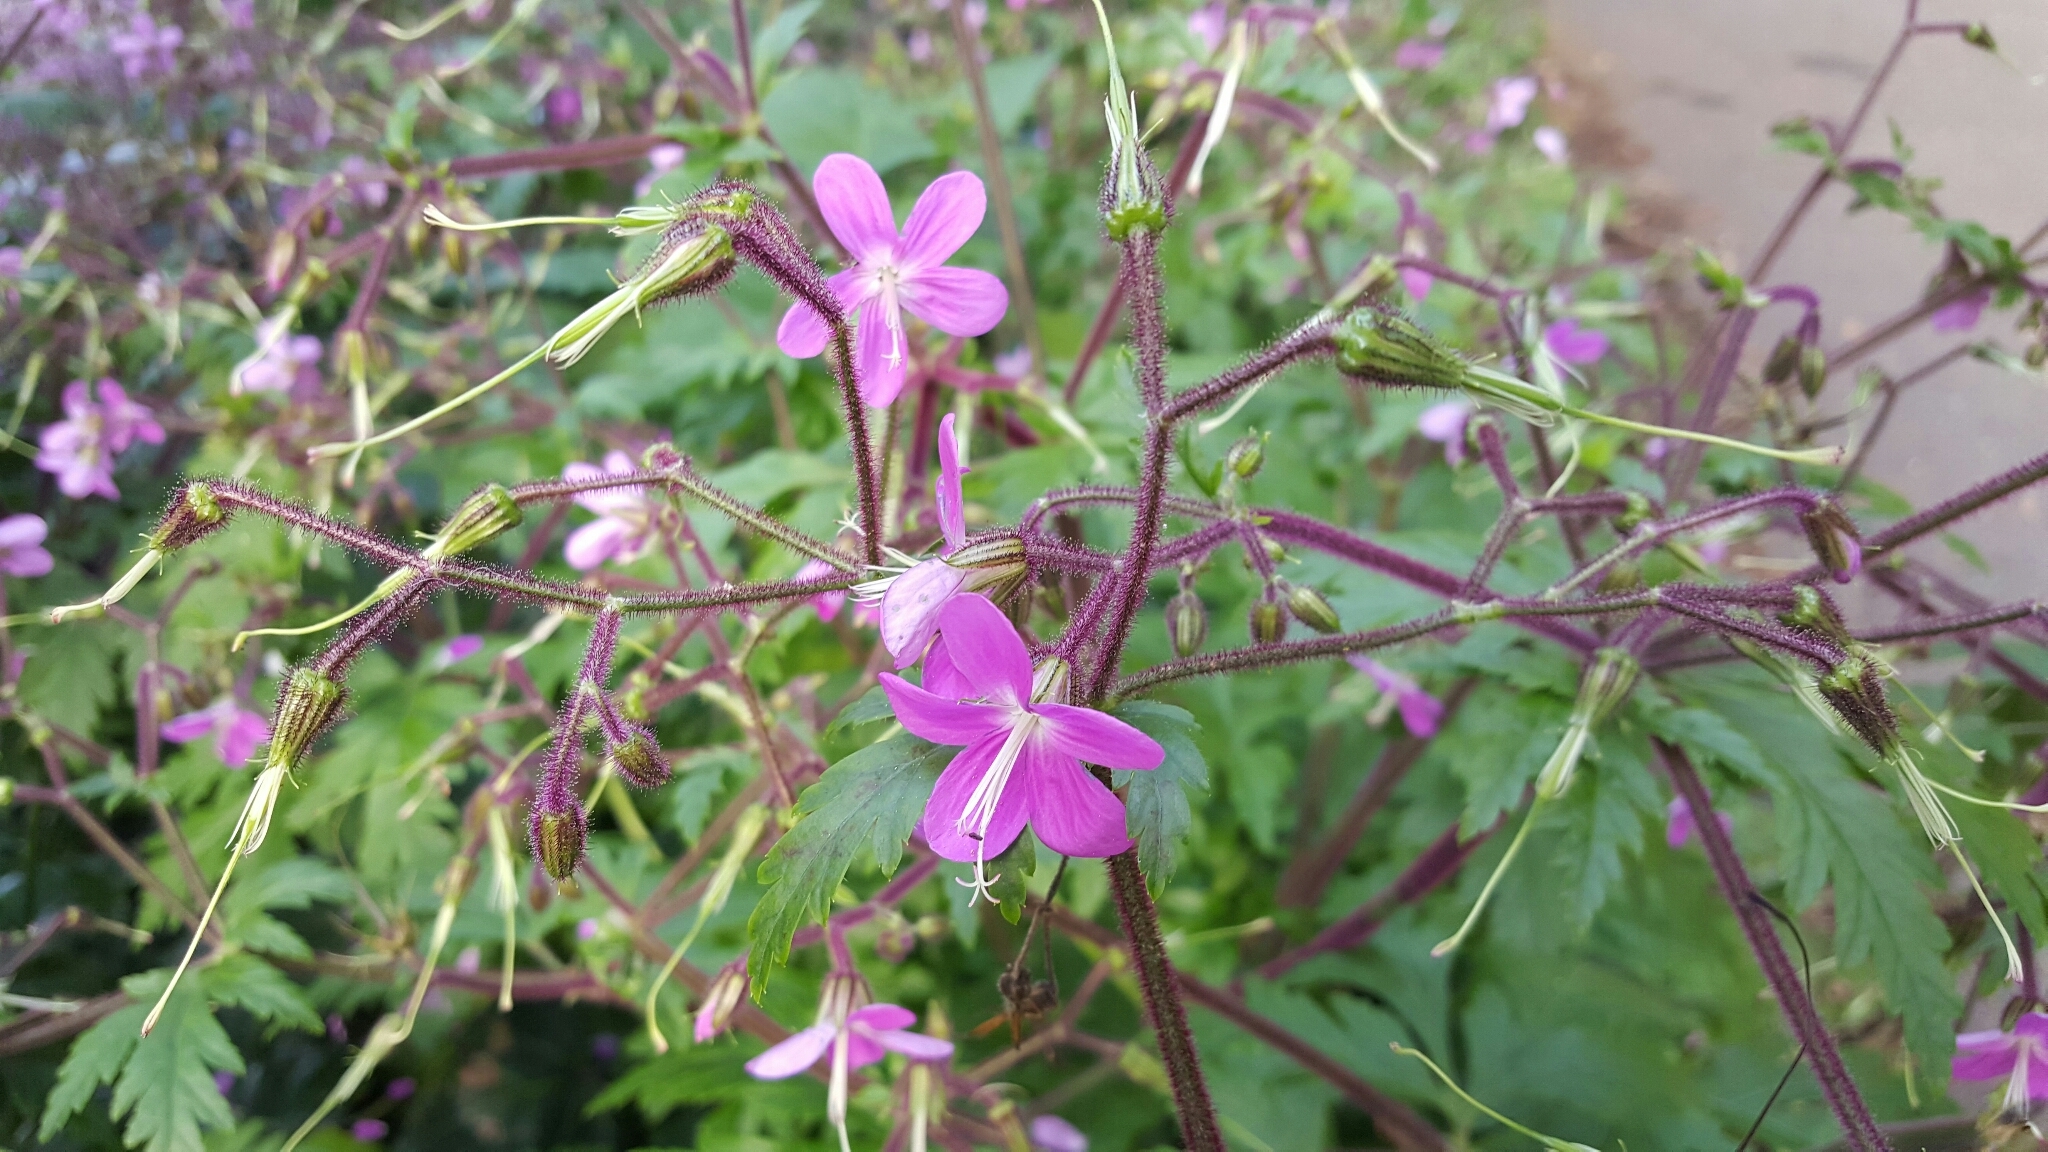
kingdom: Plantae
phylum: Tracheophyta
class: Magnoliopsida
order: Geraniales
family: Geraniaceae
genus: Geranium
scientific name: Geranium reuteri
